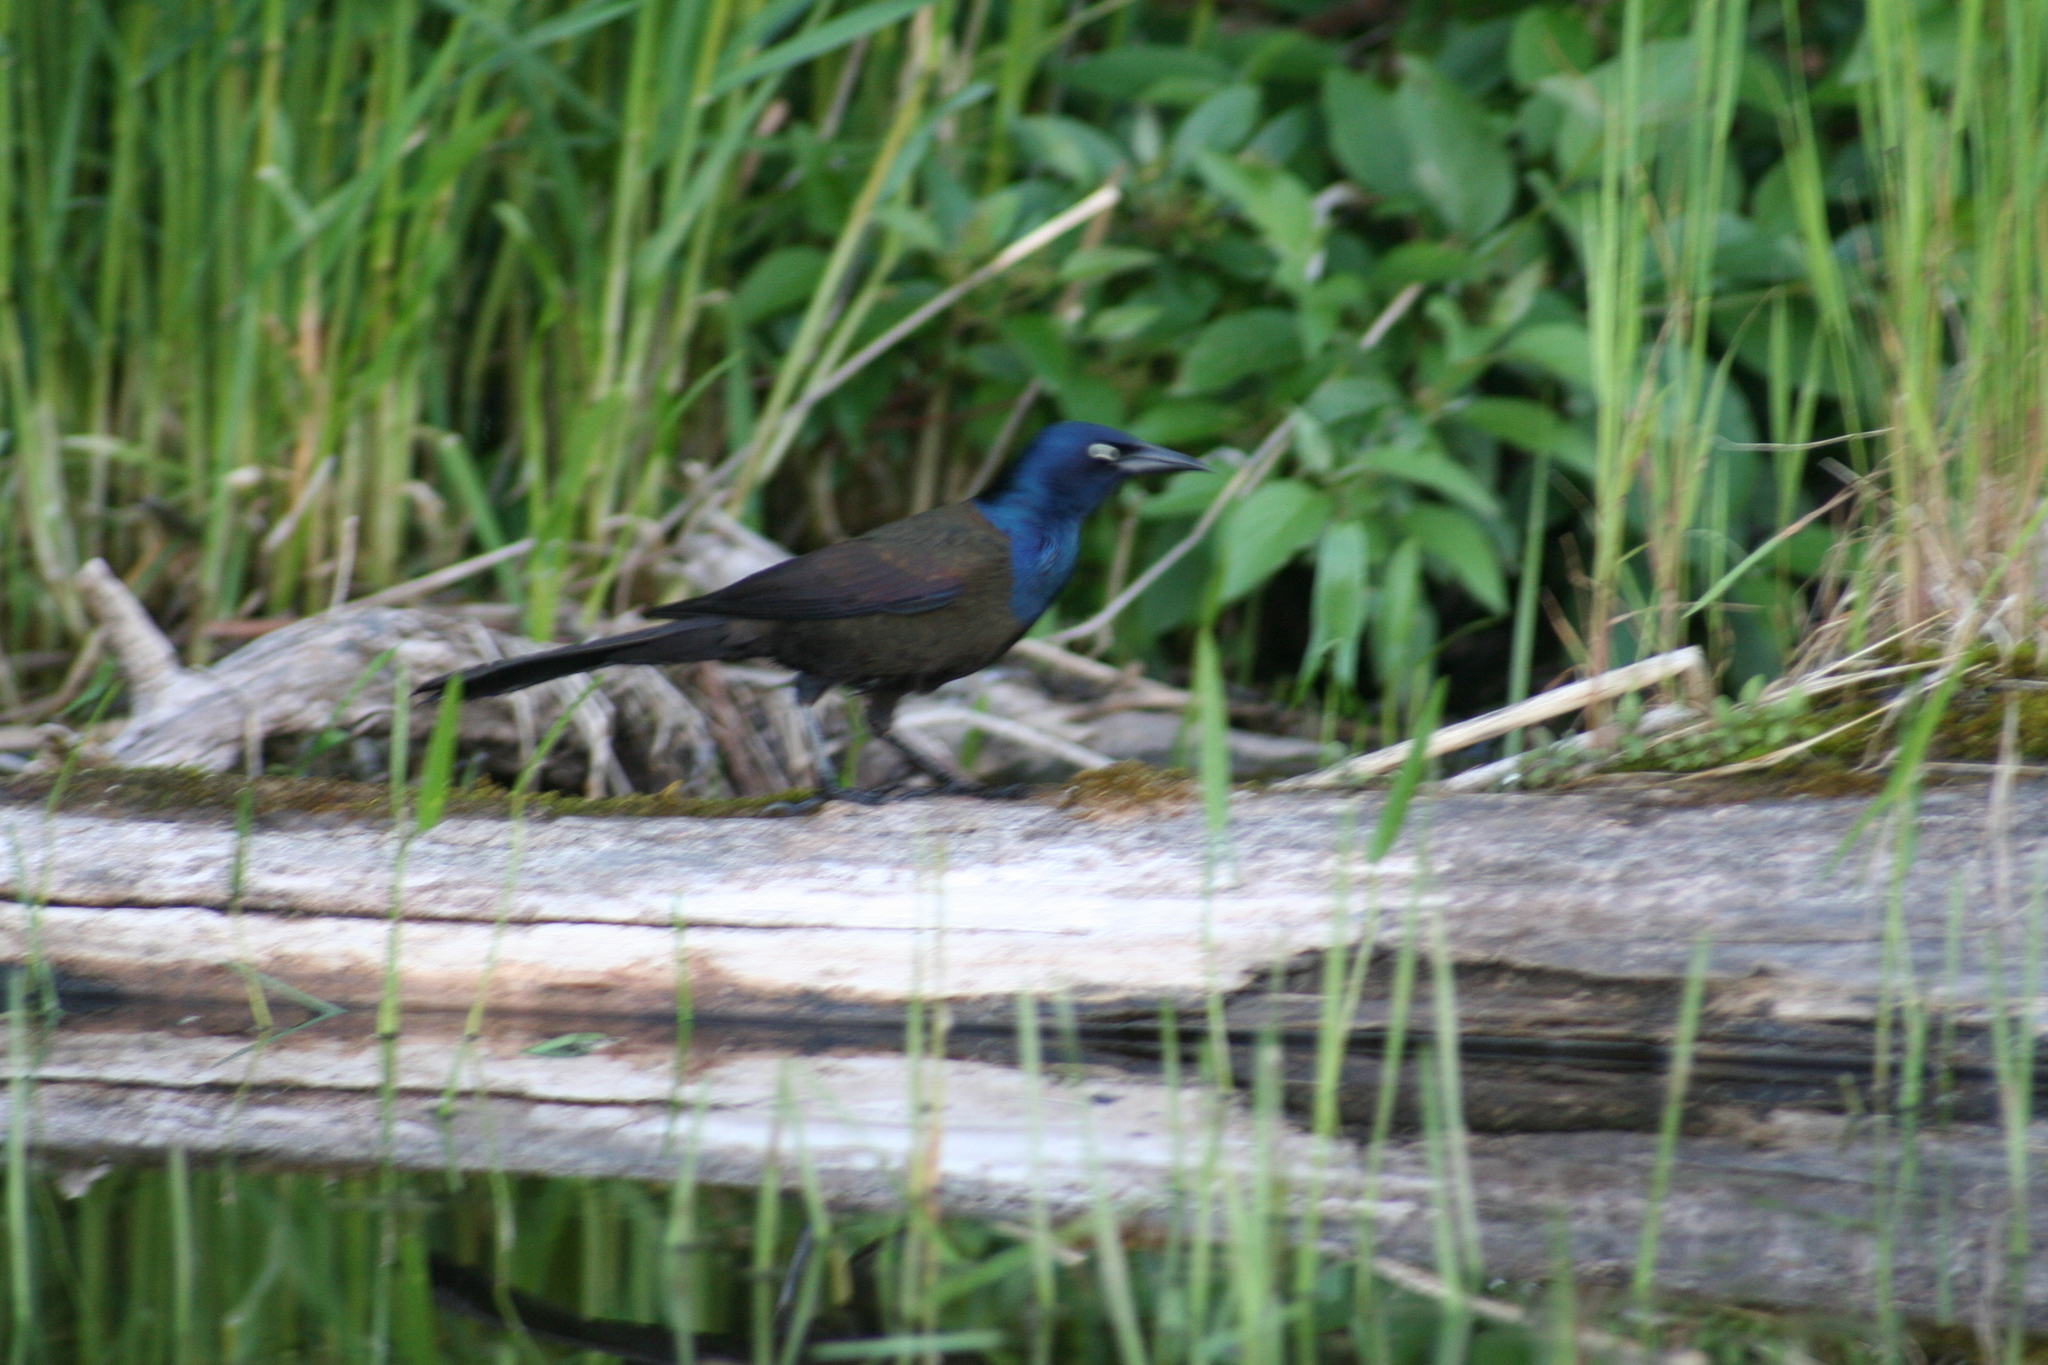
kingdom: Animalia
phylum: Chordata
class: Aves
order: Passeriformes
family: Icteridae
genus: Quiscalus
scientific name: Quiscalus quiscula
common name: Common grackle
